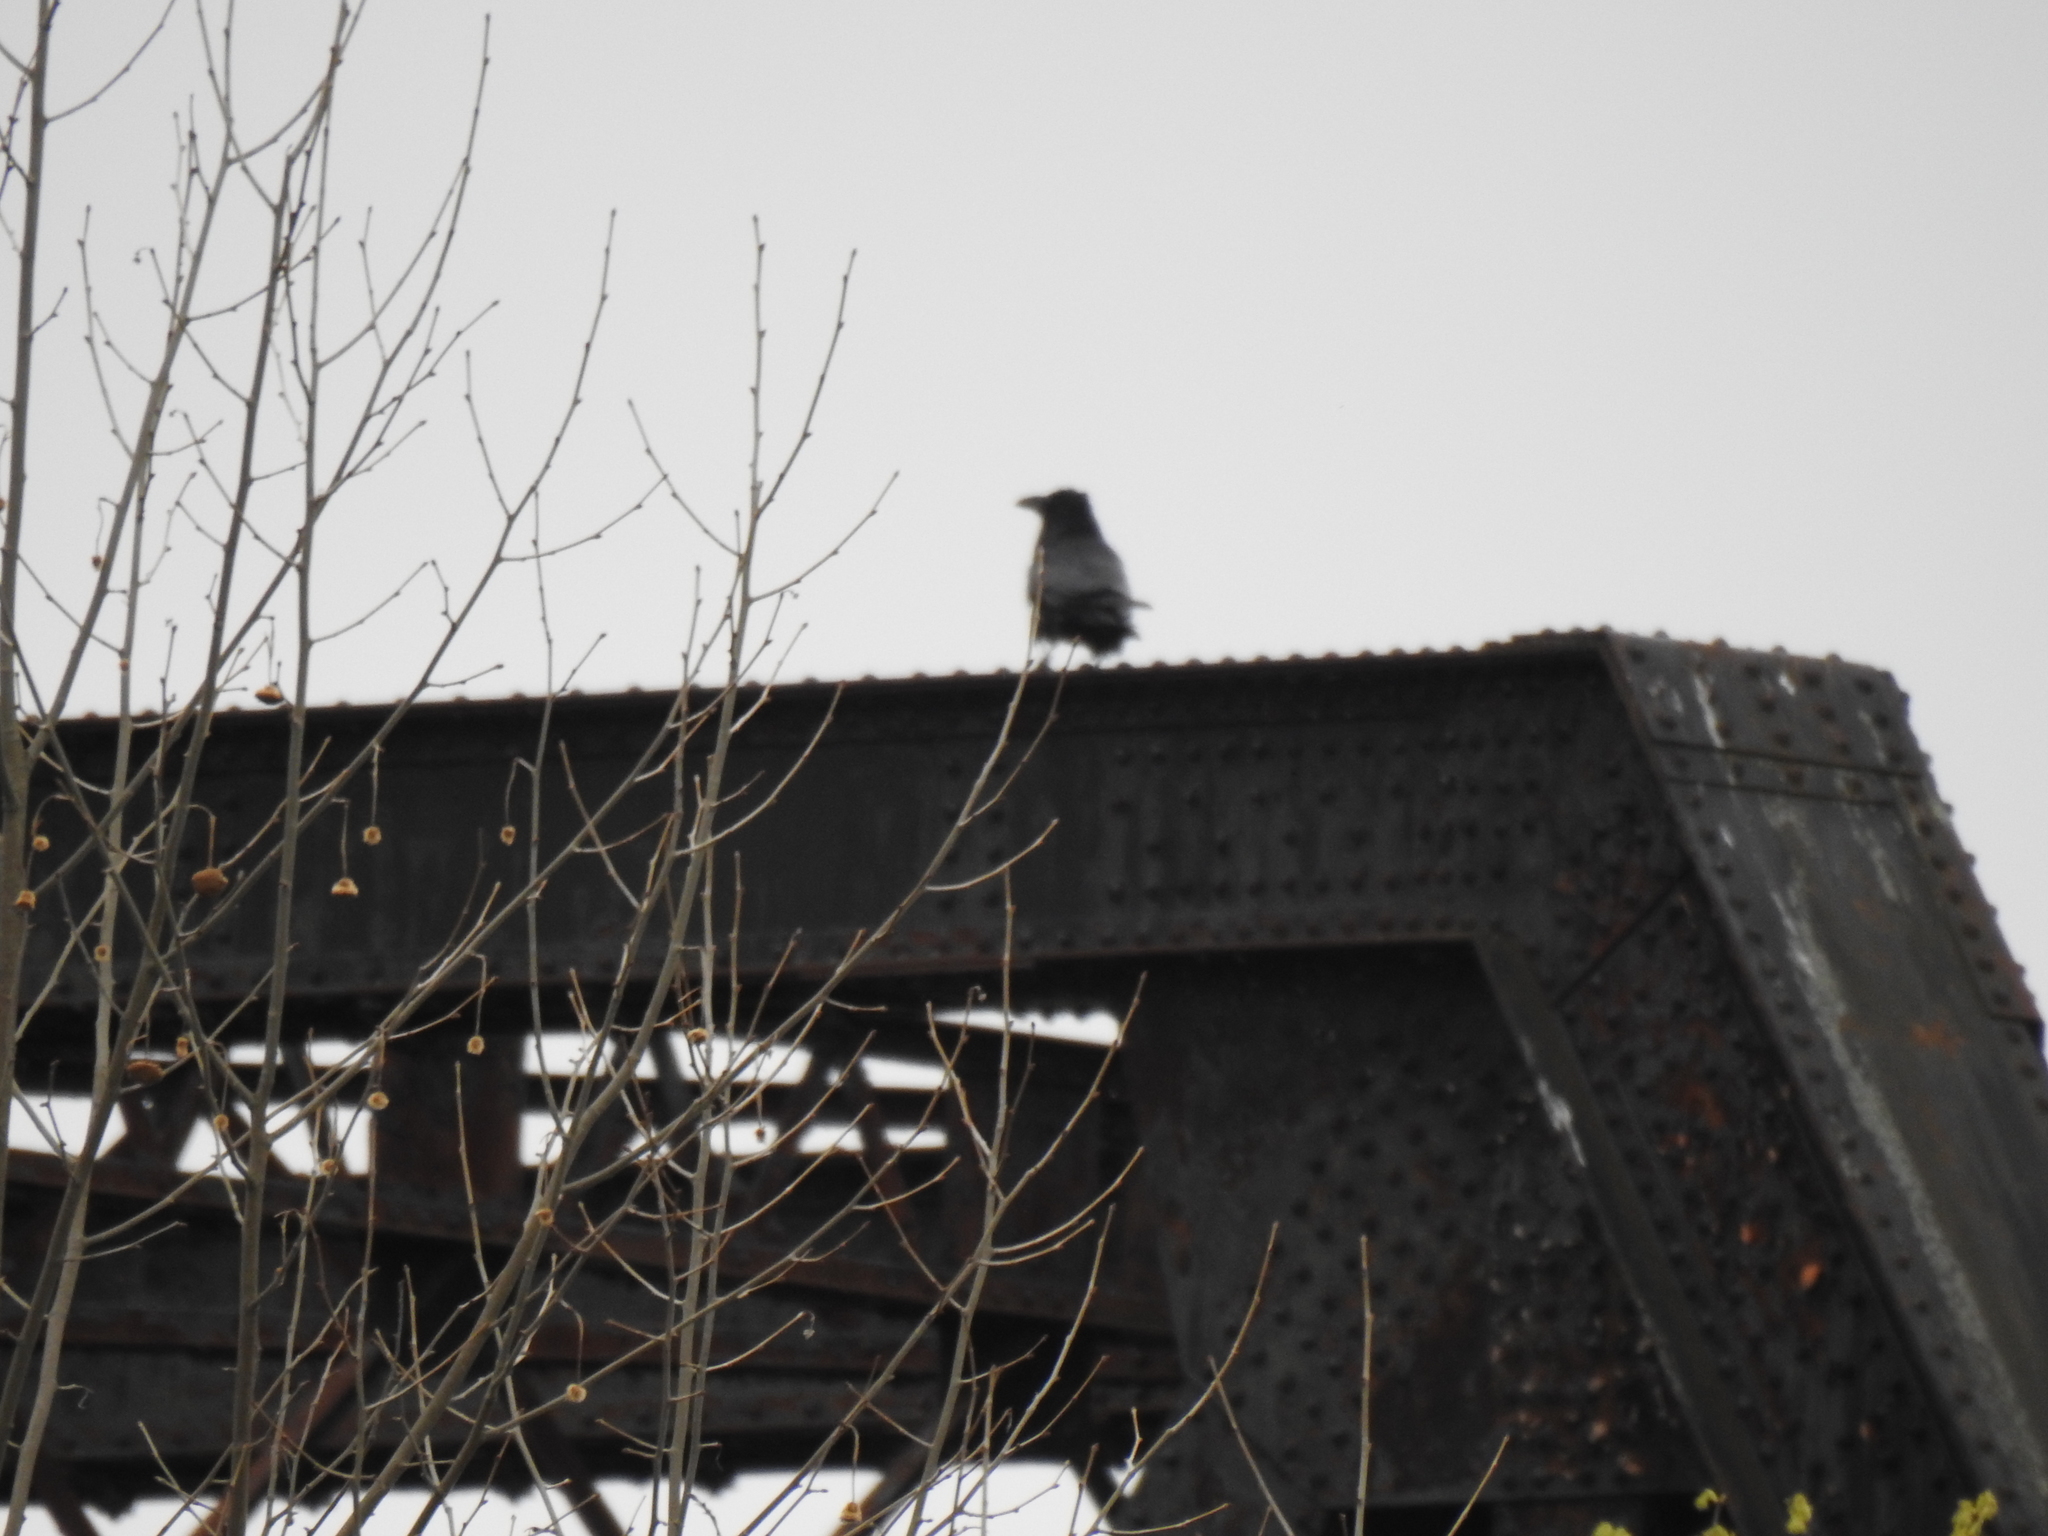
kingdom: Animalia
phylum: Chordata
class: Aves
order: Passeriformes
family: Corvidae
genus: Corvus
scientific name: Corvus corax
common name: Common raven
